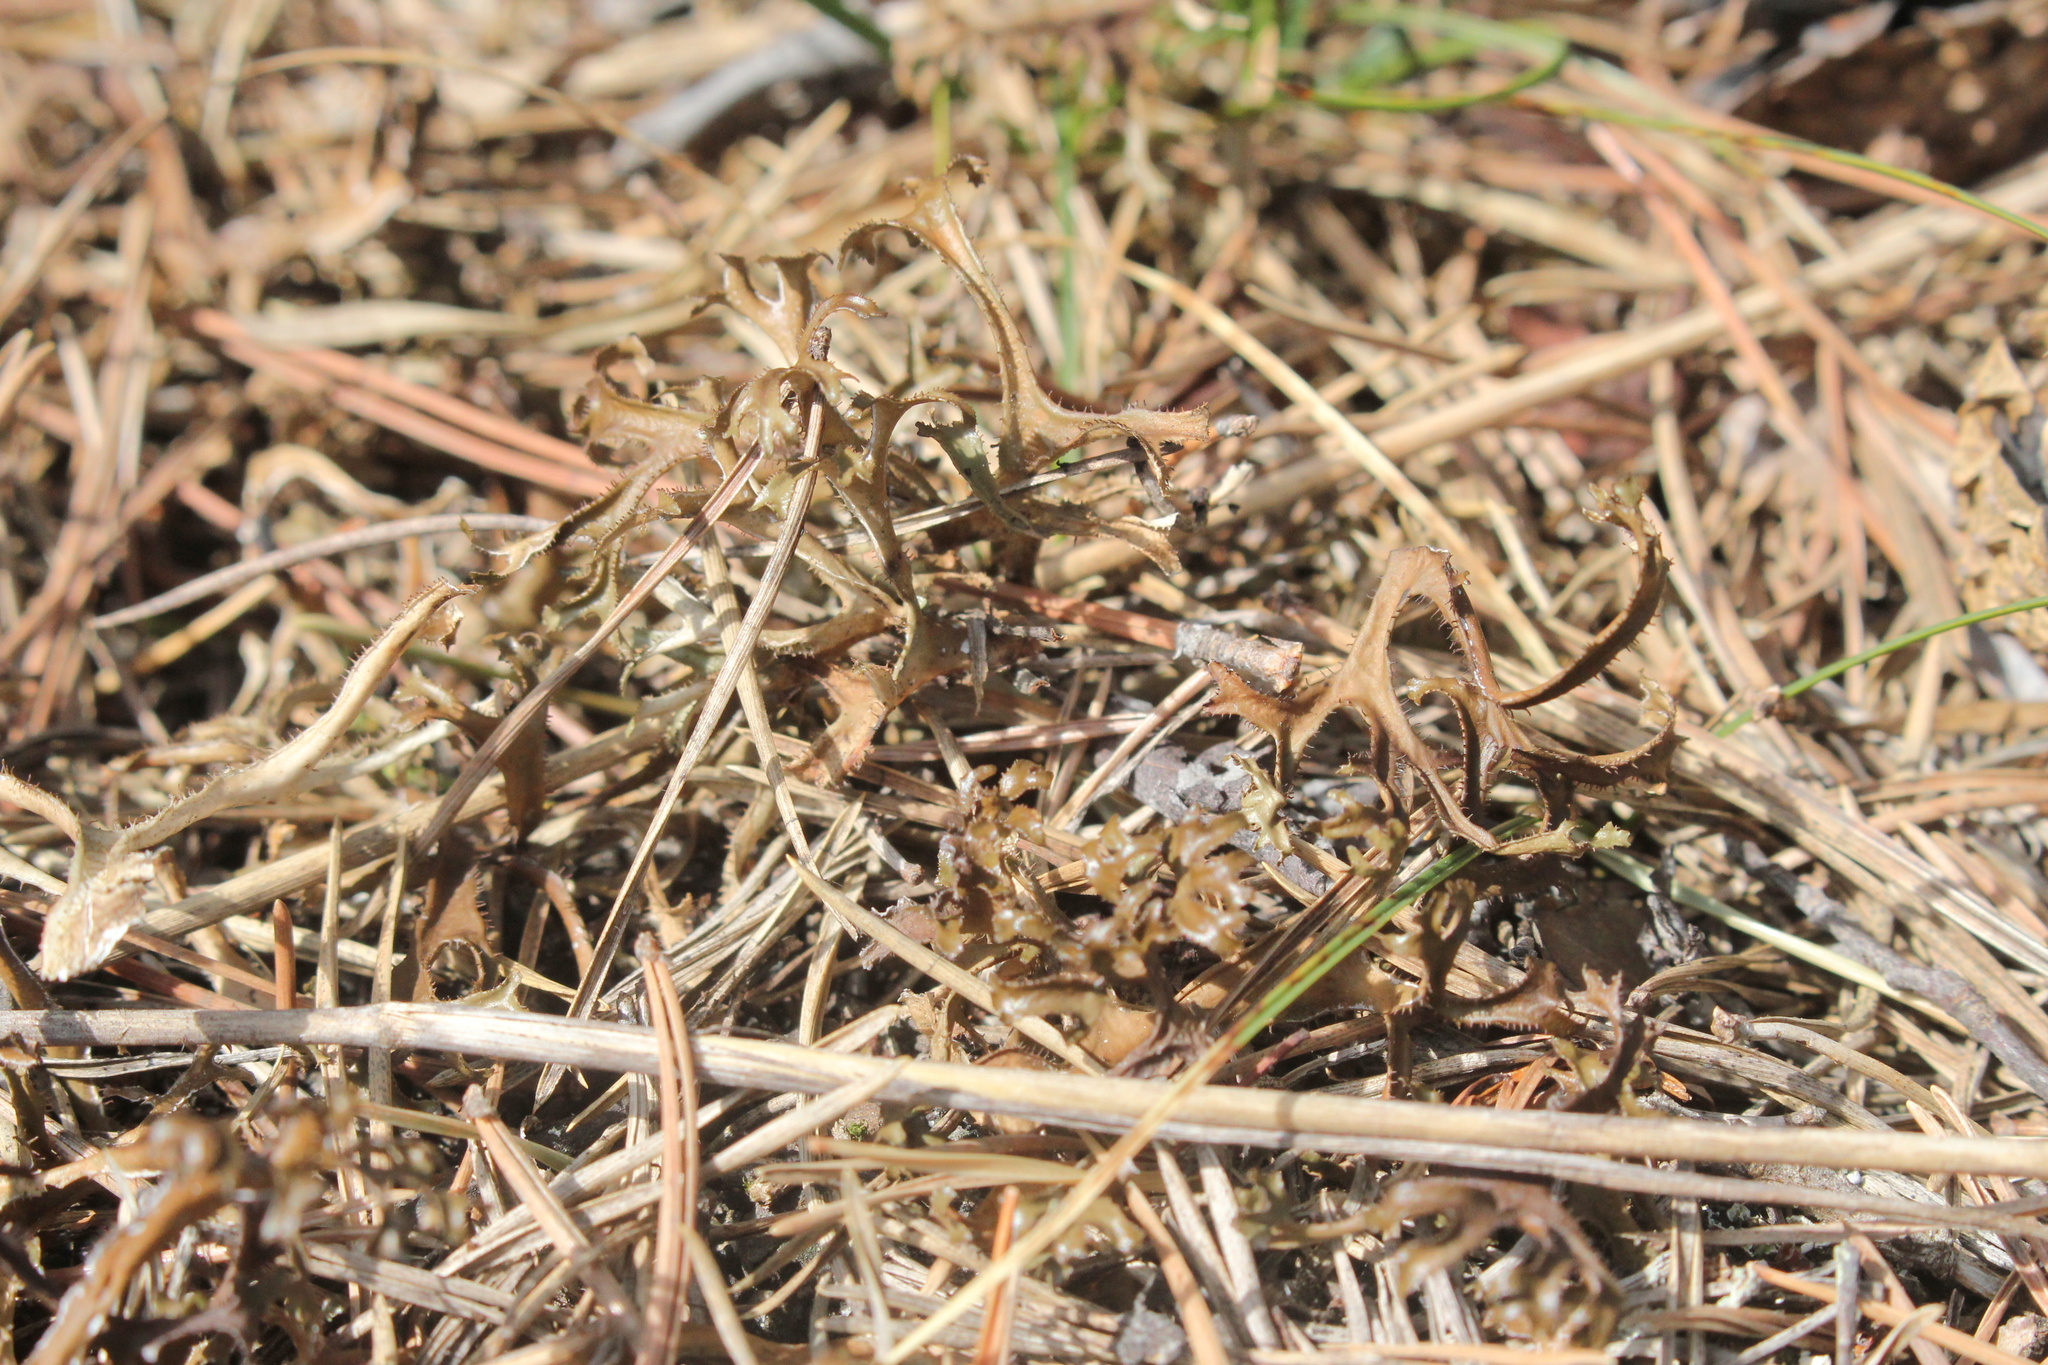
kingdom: Fungi
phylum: Ascomycota
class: Lecanoromycetes
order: Lecanorales
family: Parmeliaceae
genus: Cetraria
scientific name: Cetraria arenaria
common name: Sand-loving iceland lichen
